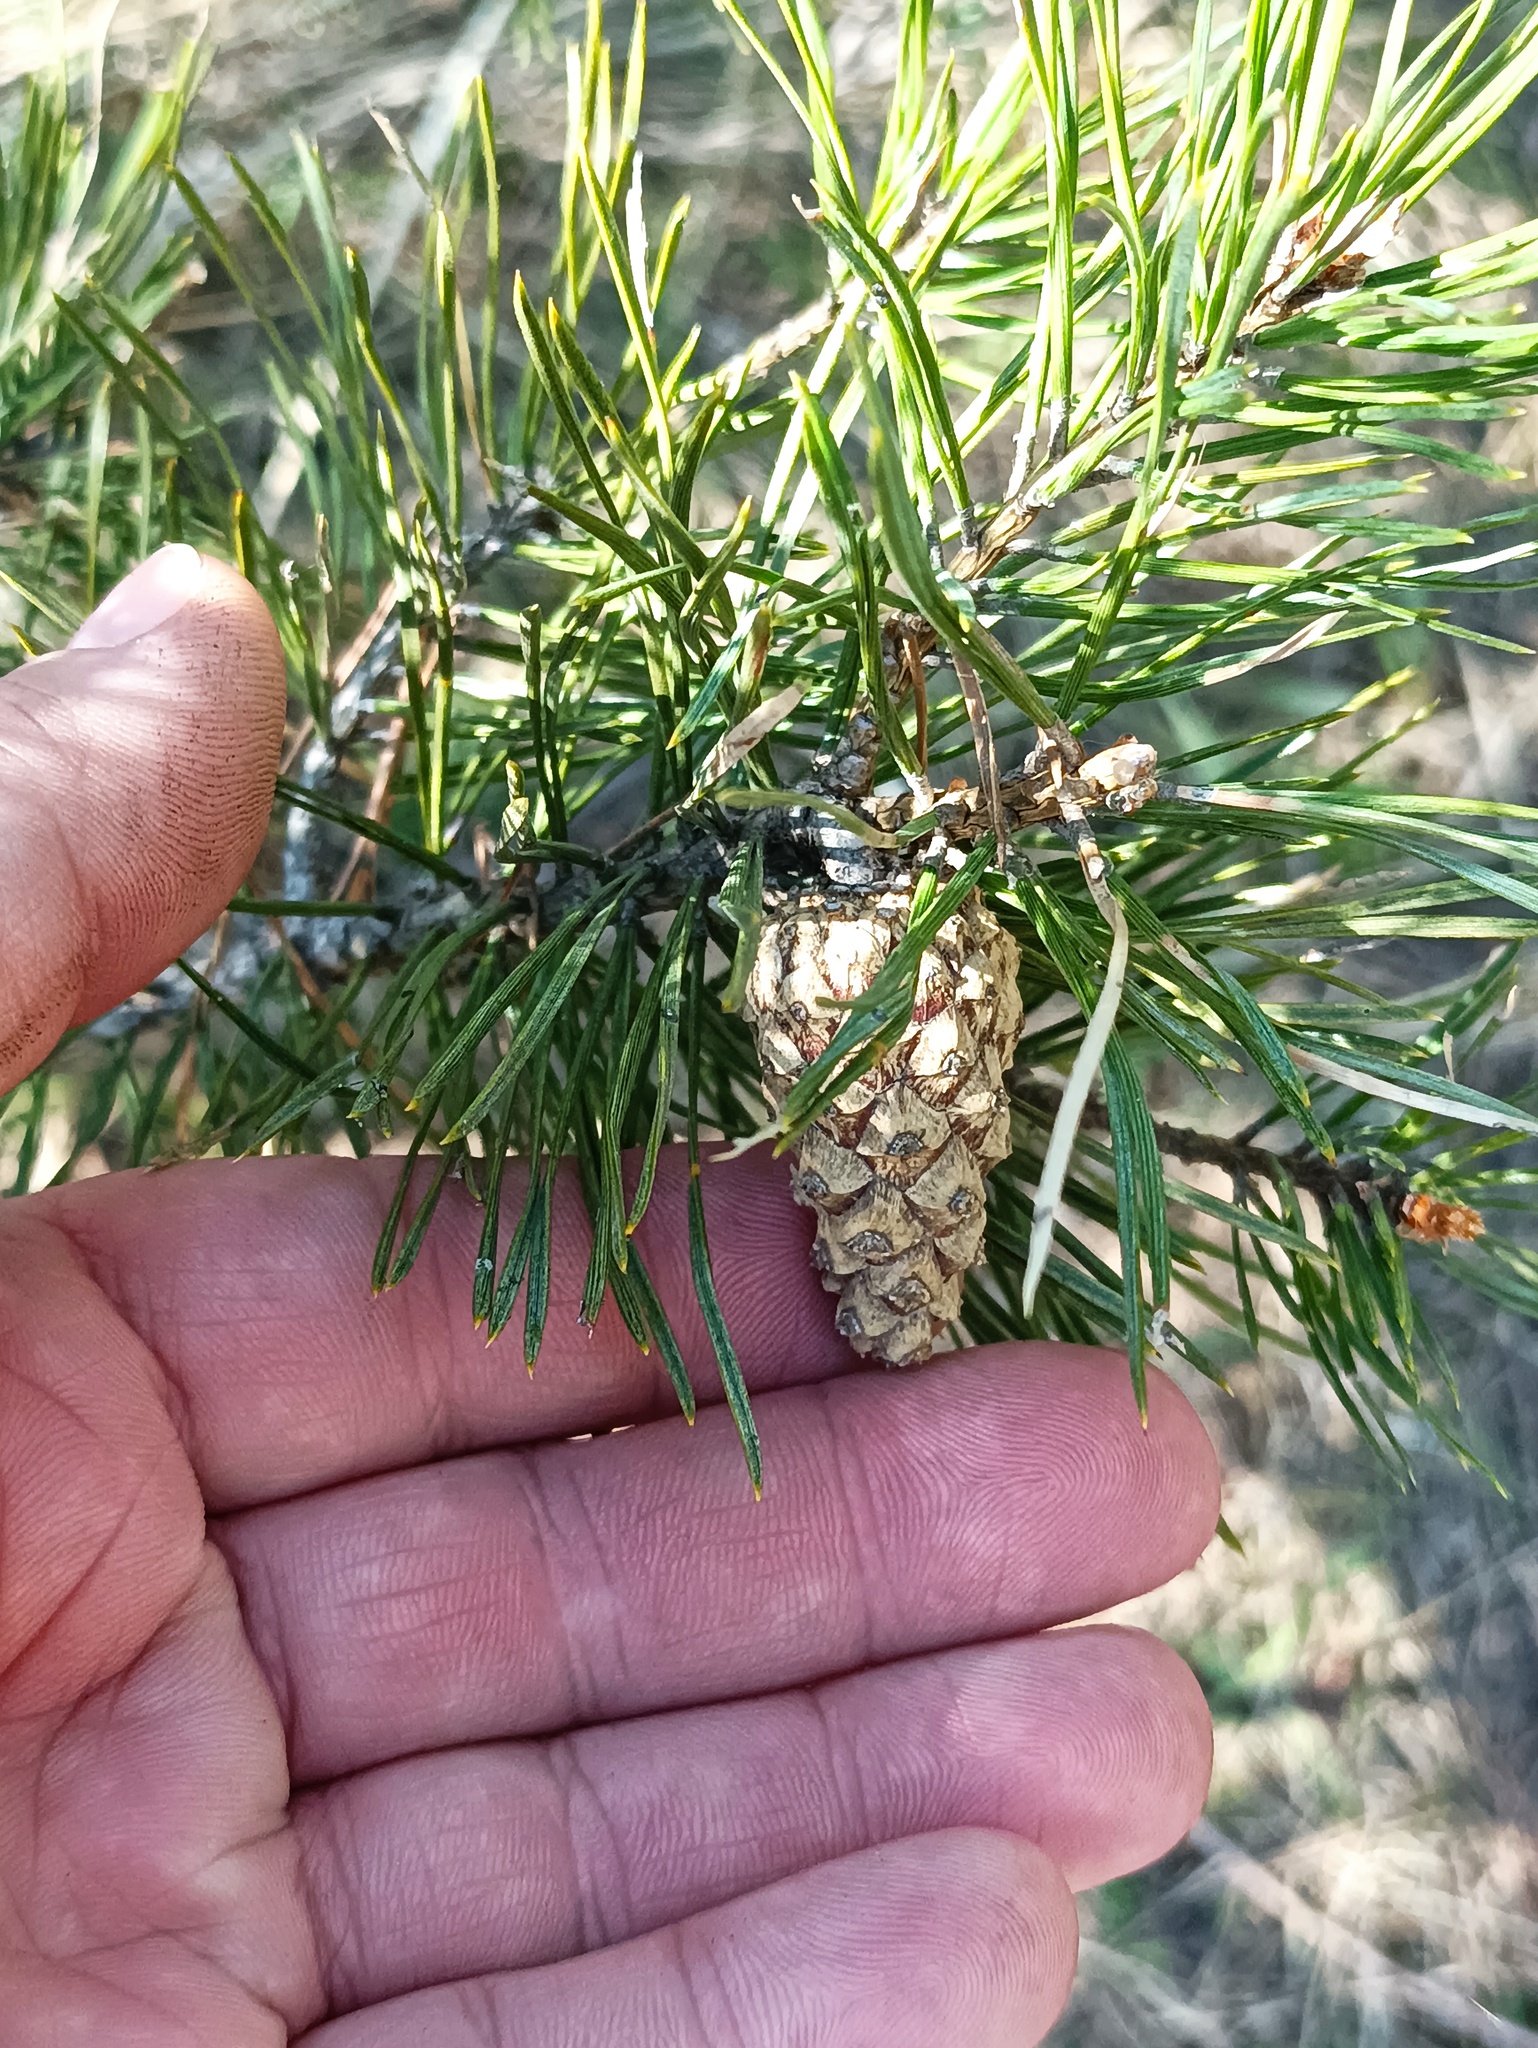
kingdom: Plantae
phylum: Tracheophyta
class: Pinopsida
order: Pinales
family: Pinaceae
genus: Pinus
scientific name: Pinus sylvestris
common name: Scots pine
